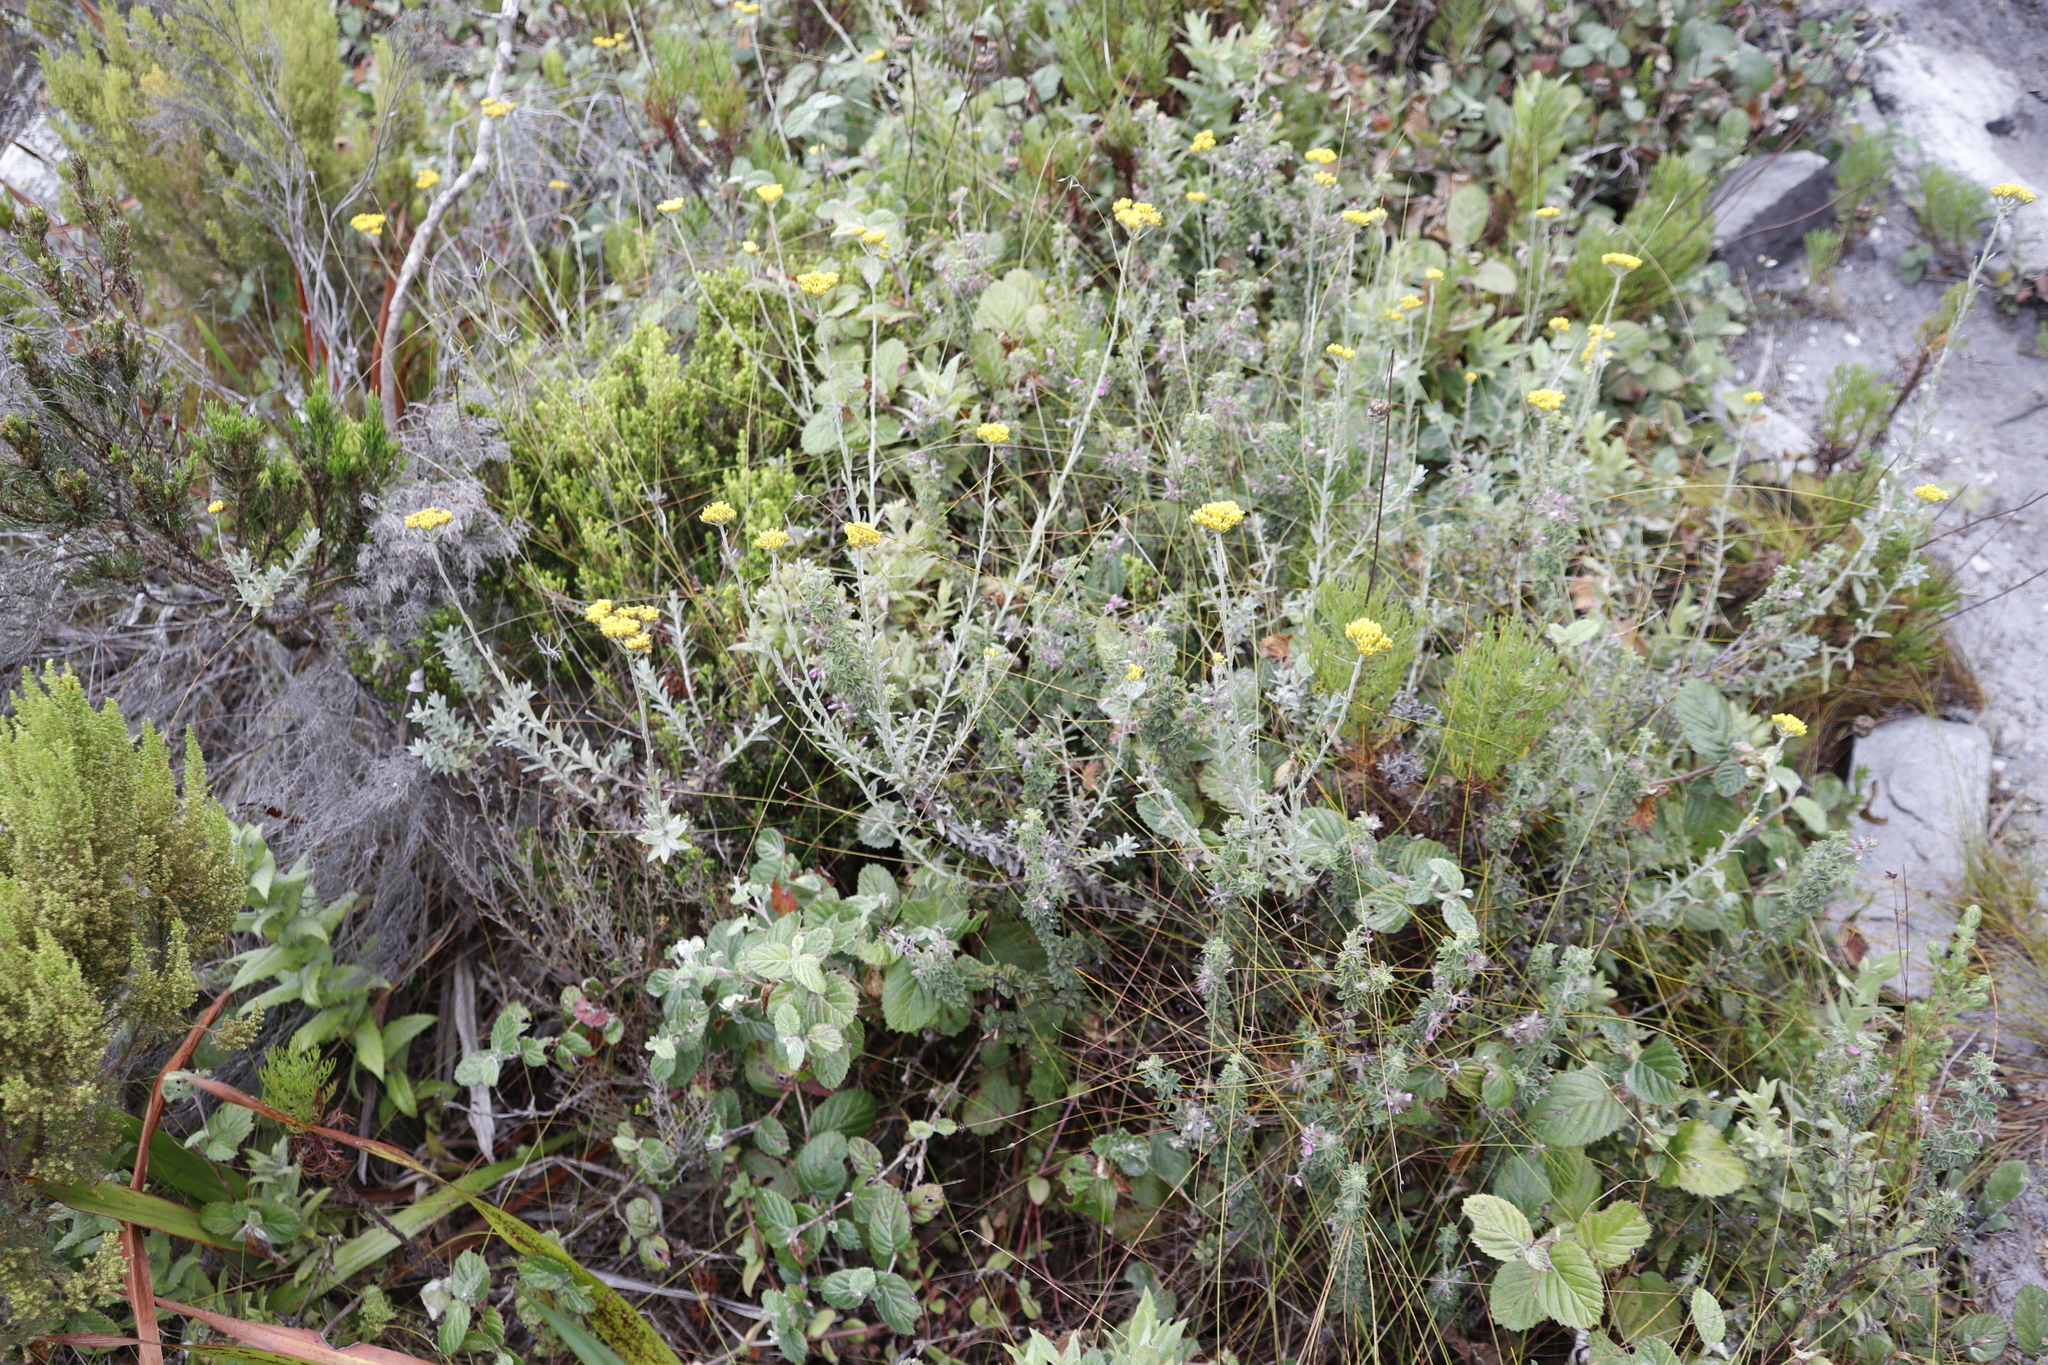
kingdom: Plantae
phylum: Tracheophyta
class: Magnoliopsida
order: Fabales
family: Fabaceae
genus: Indigofera
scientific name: Indigofera candolleana
